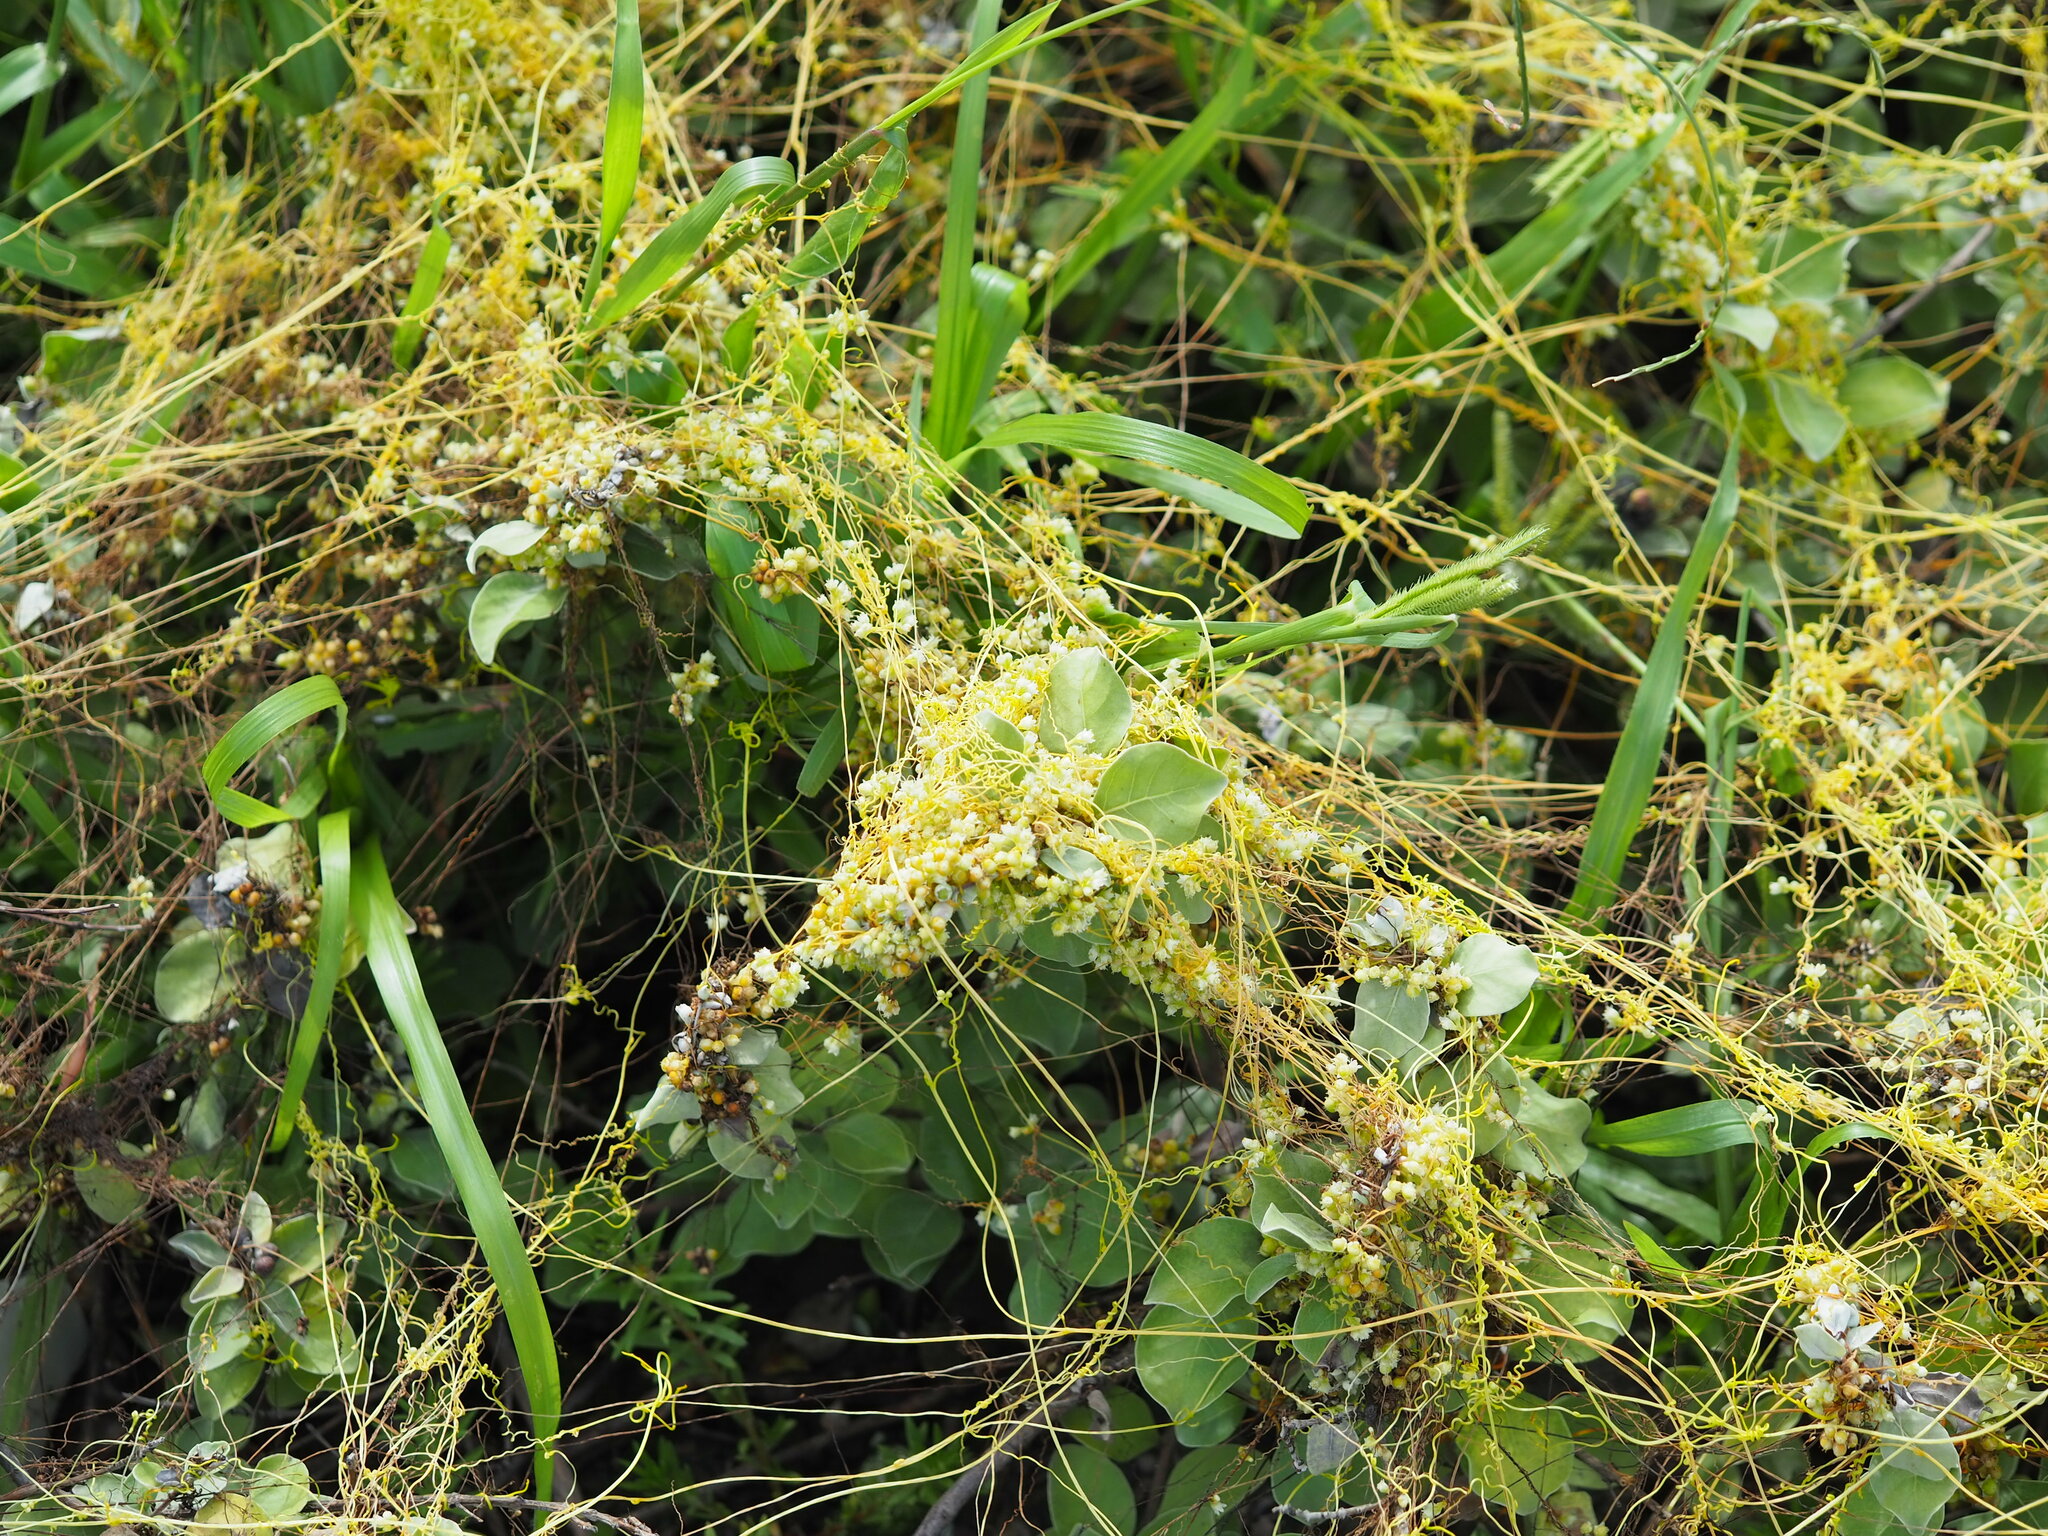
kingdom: Plantae
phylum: Tracheophyta
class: Magnoliopsida
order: Solanales
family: Convolvulaceae
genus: Cuscuta
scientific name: Cuscuta campestris
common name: Yellow dodder
